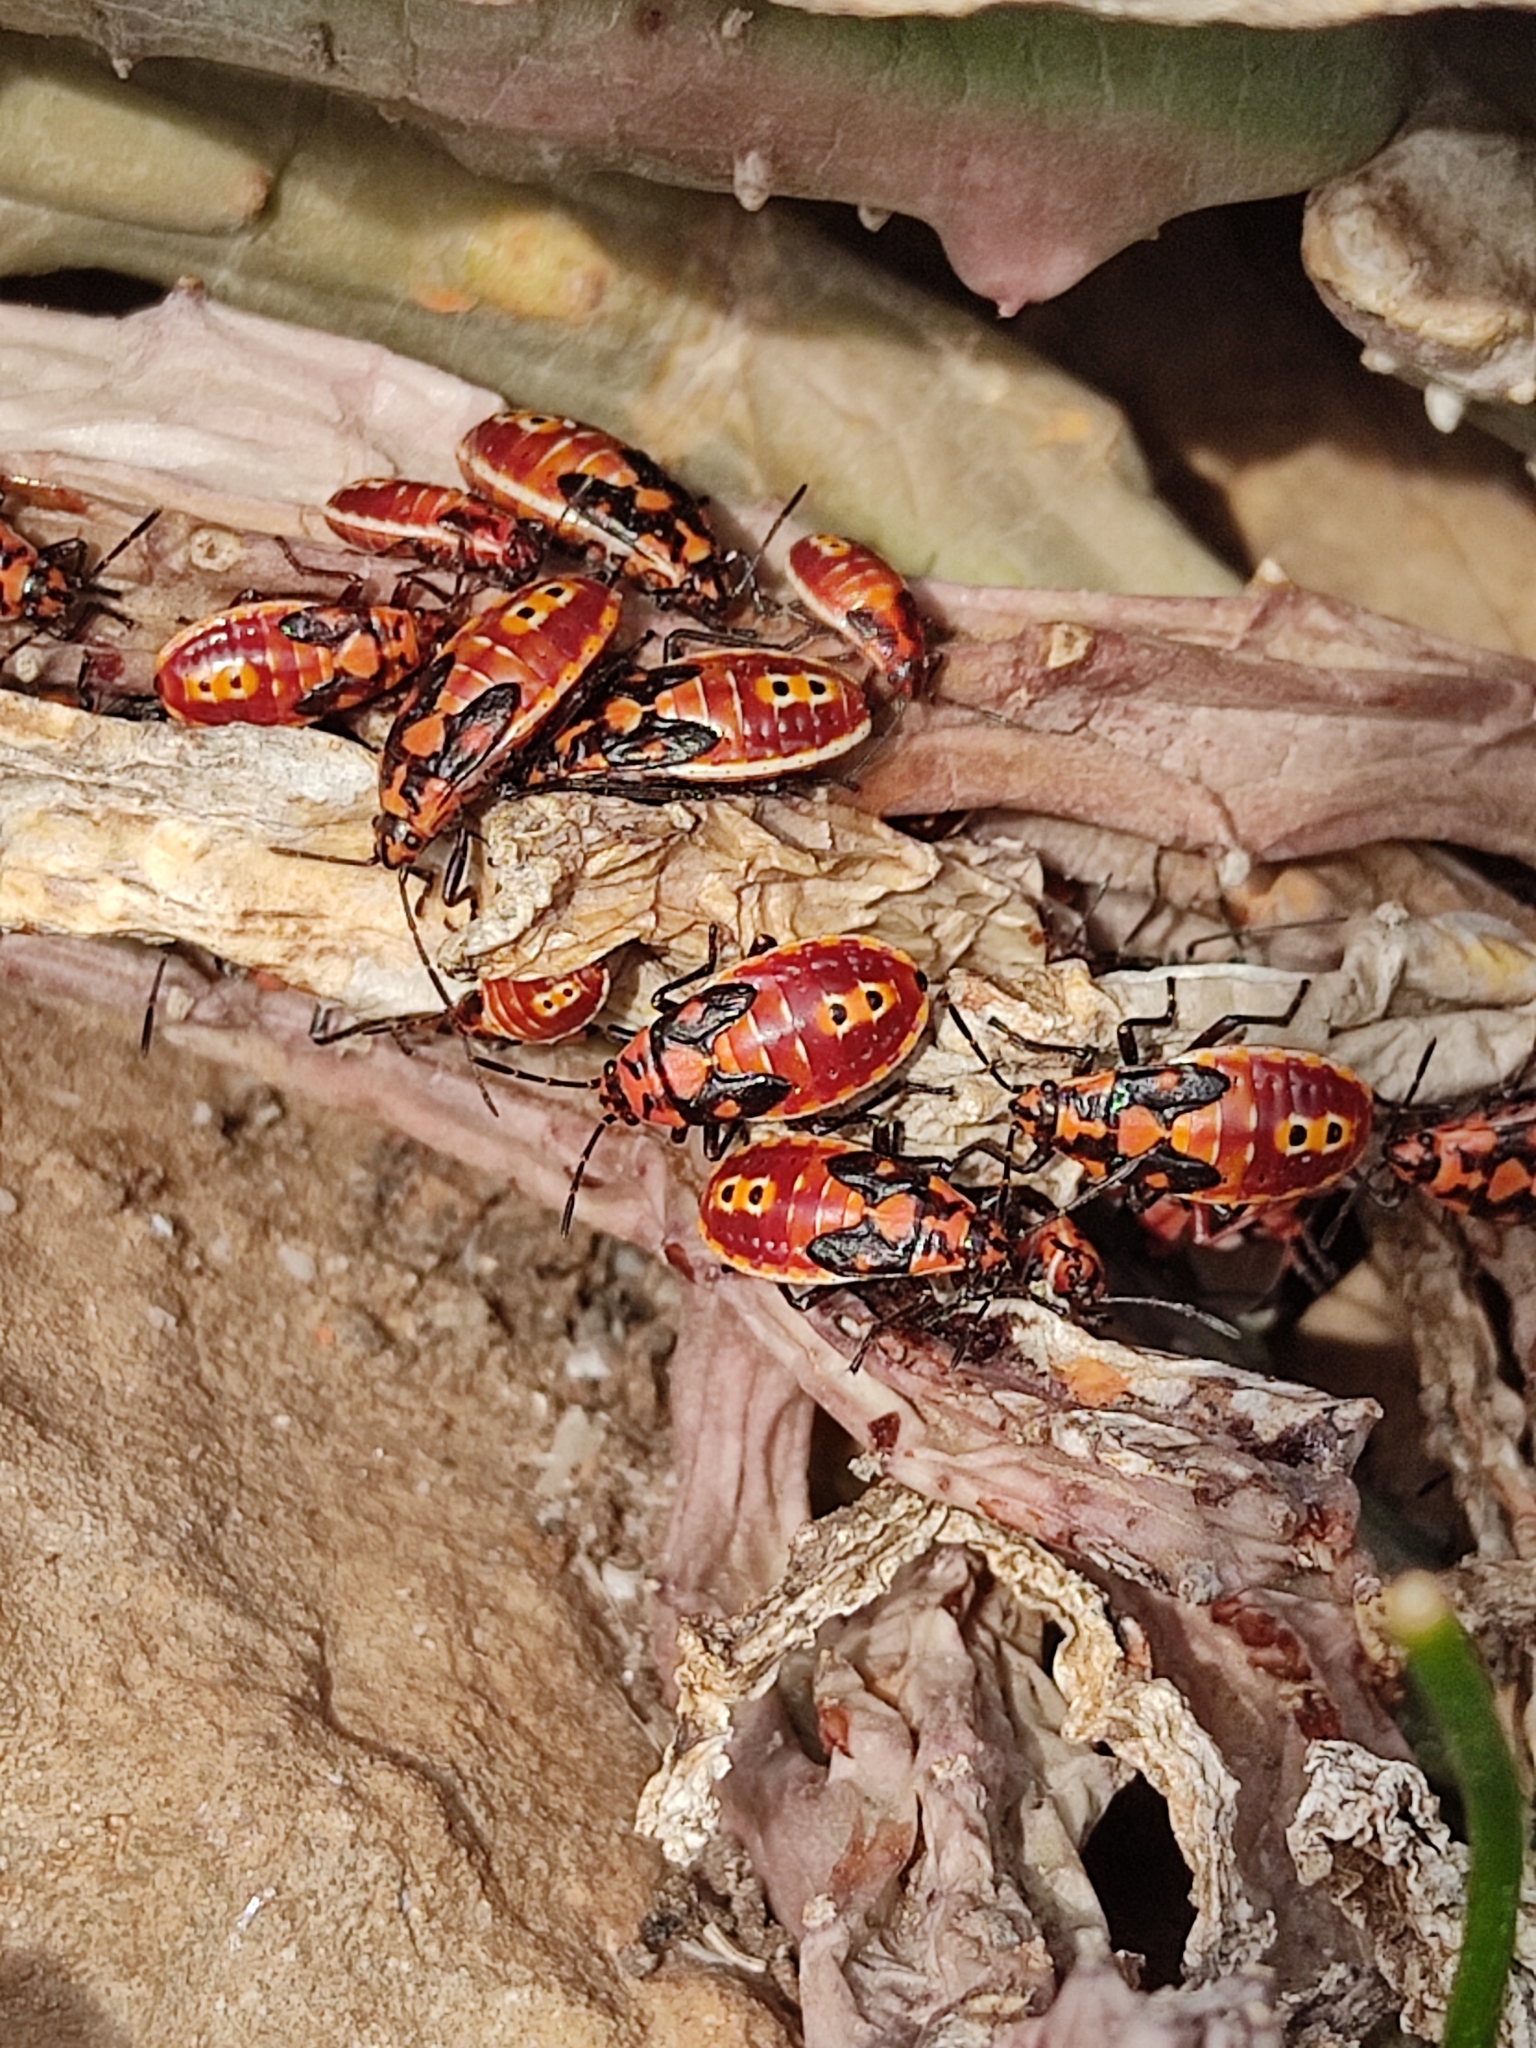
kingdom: Animalia
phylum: Arthropoda
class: Insecta
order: Hemiptera
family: Lygaeidae
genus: Spilostethus
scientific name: Spilostethus pandurus
